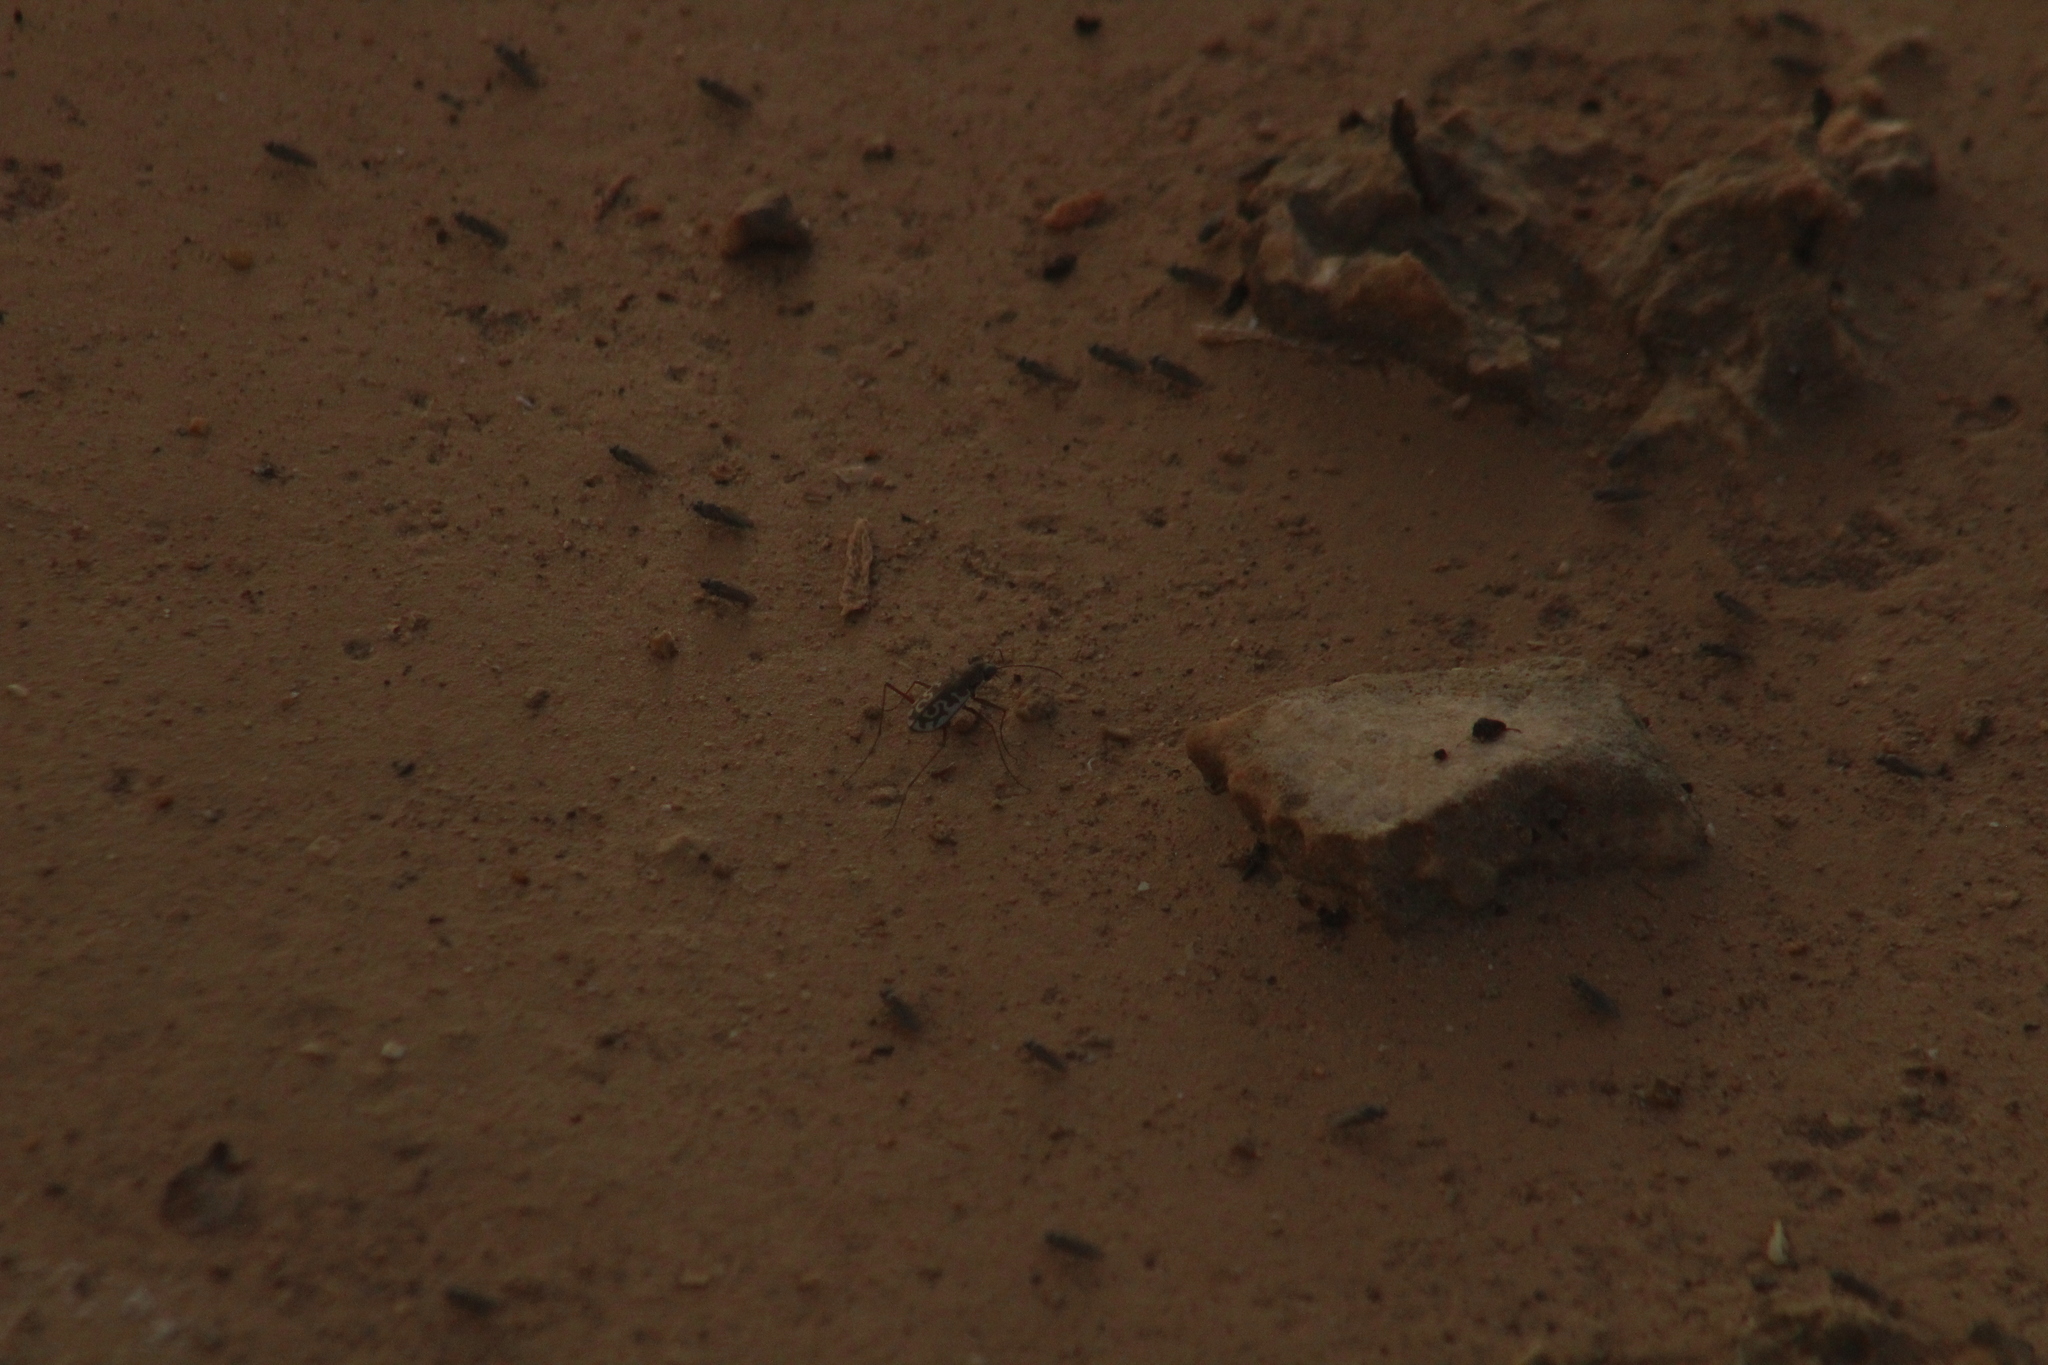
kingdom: Animalia
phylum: Arthropoda
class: Insecta
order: Coleoptera
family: Carabidae
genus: Cicindela
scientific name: Cicindela trifasciata
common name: Mudflat tiger beetle
